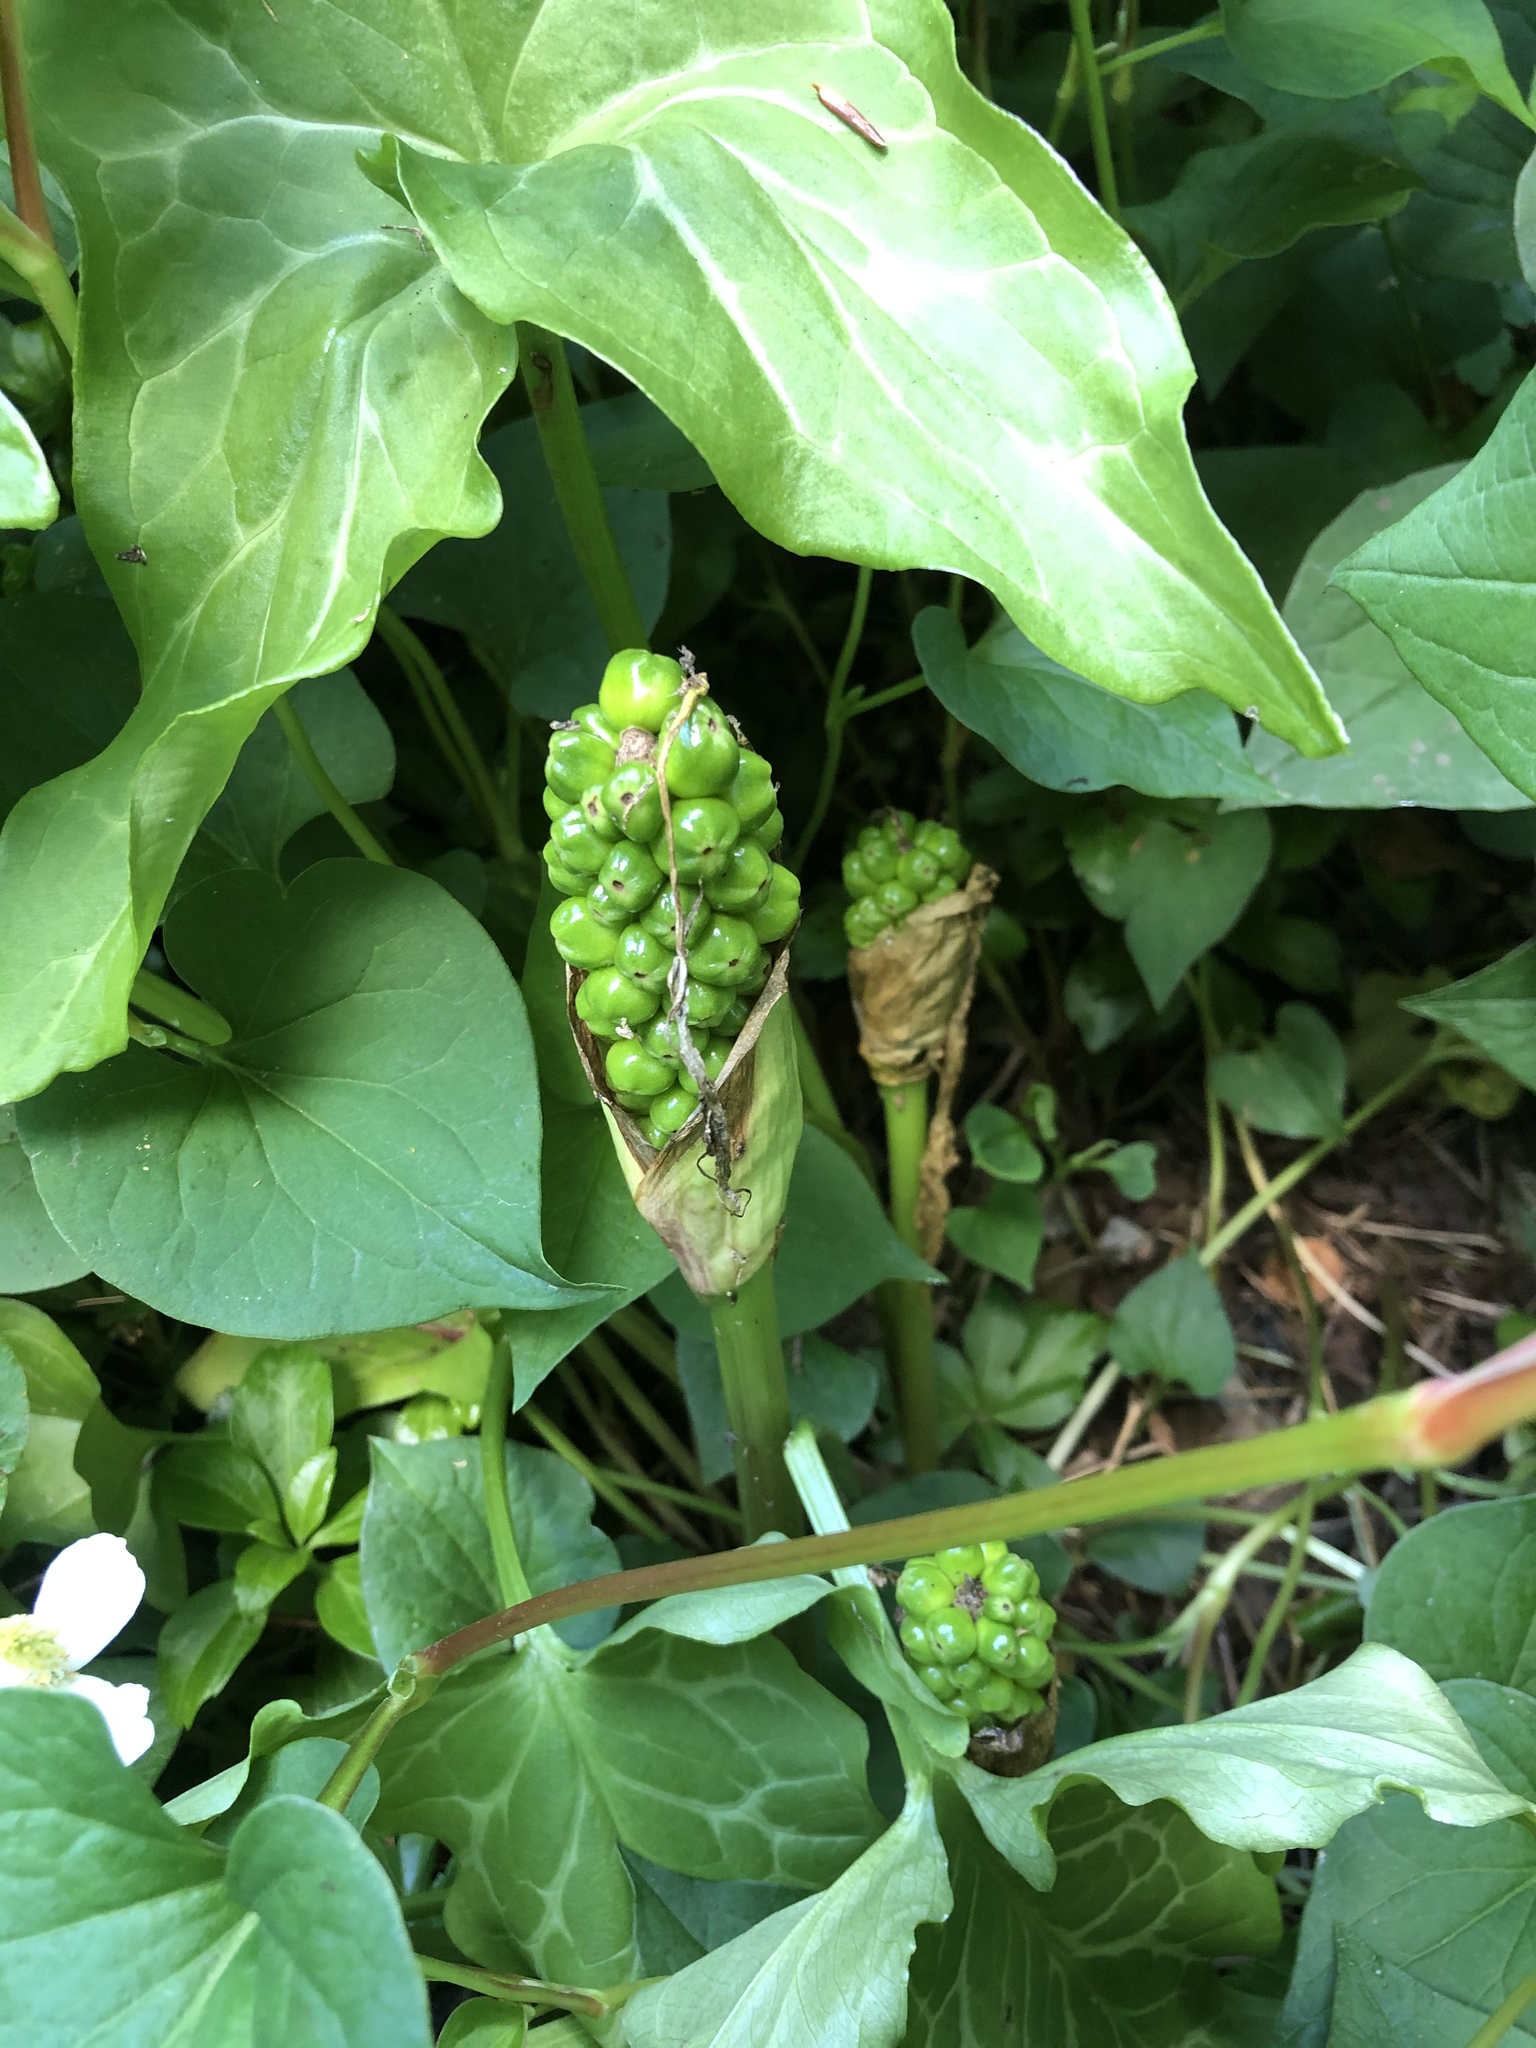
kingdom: Plantae
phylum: Tracheophyta
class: Liliopsida
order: Alismatales
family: Araceae
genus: Arum
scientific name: Arum italicum
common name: Italian lords-and-ladies
